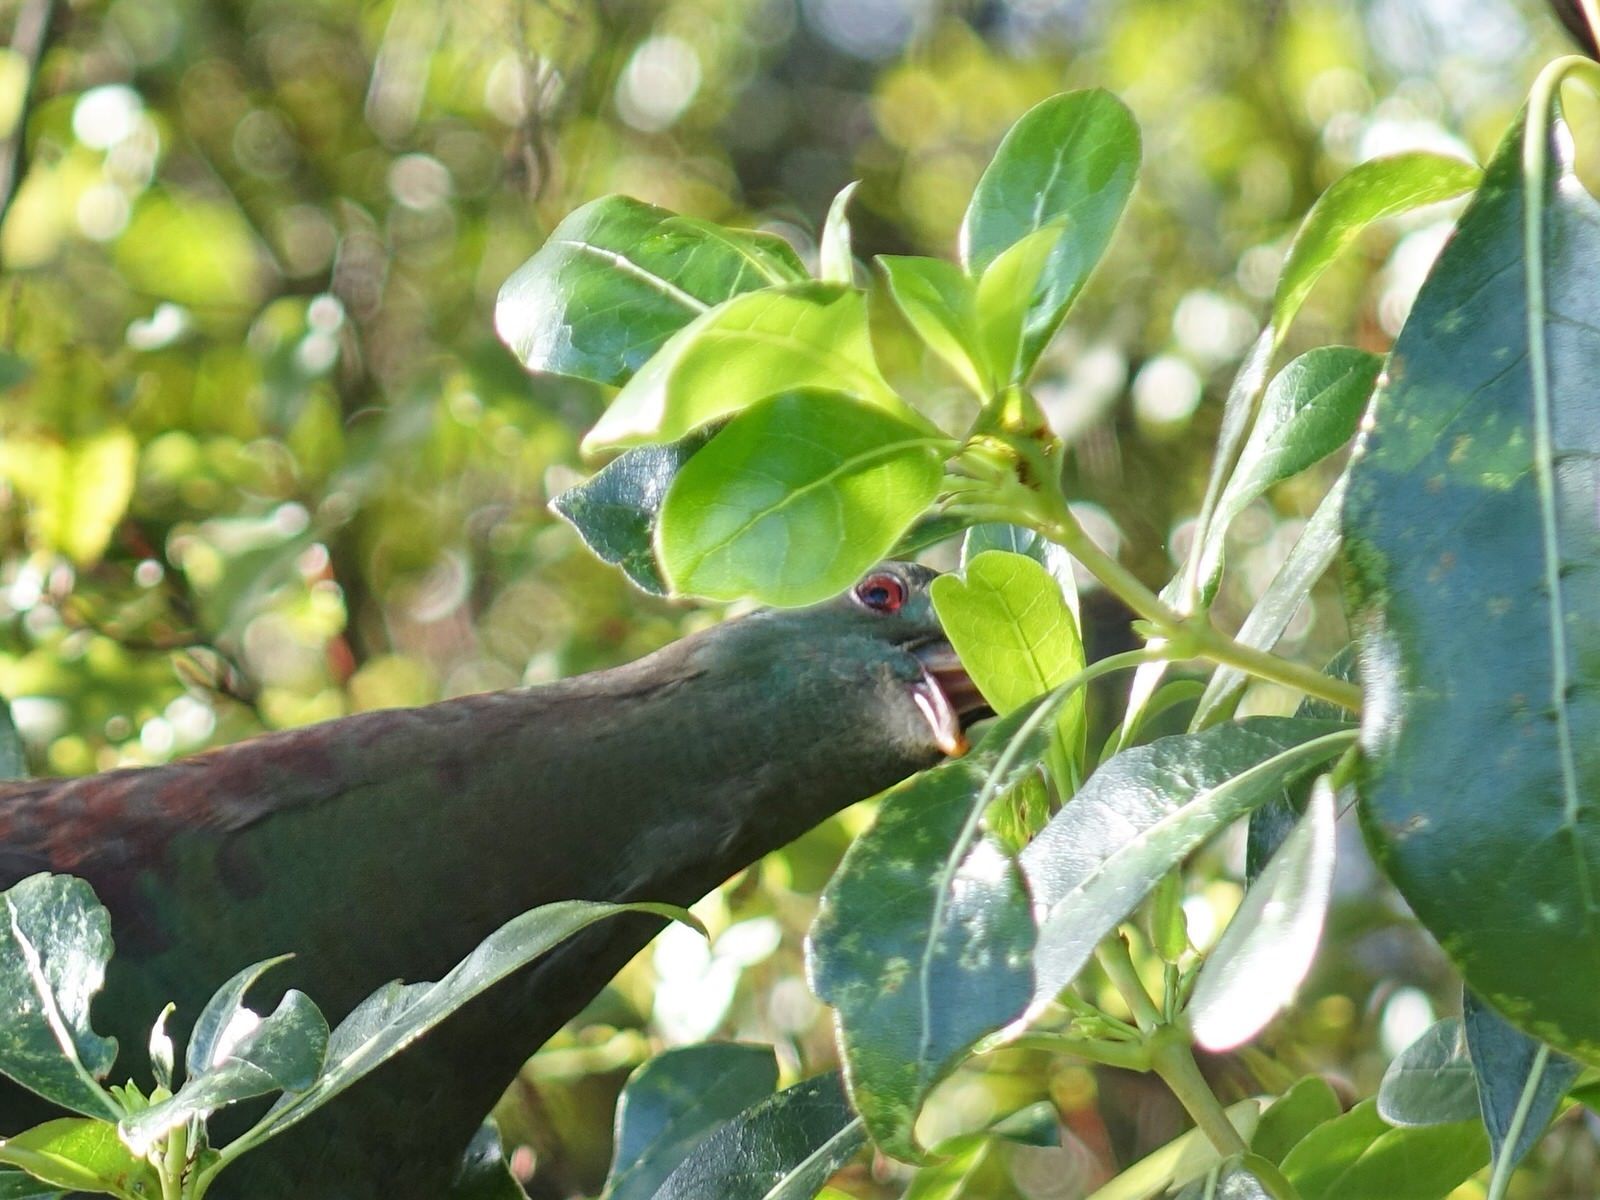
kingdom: Animalia
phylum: Chordata
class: Aves
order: Columbiformes
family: Columbidae
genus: Hemiphaga
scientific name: Hemiphaga novaeseelandiae
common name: New zealand pigeon
